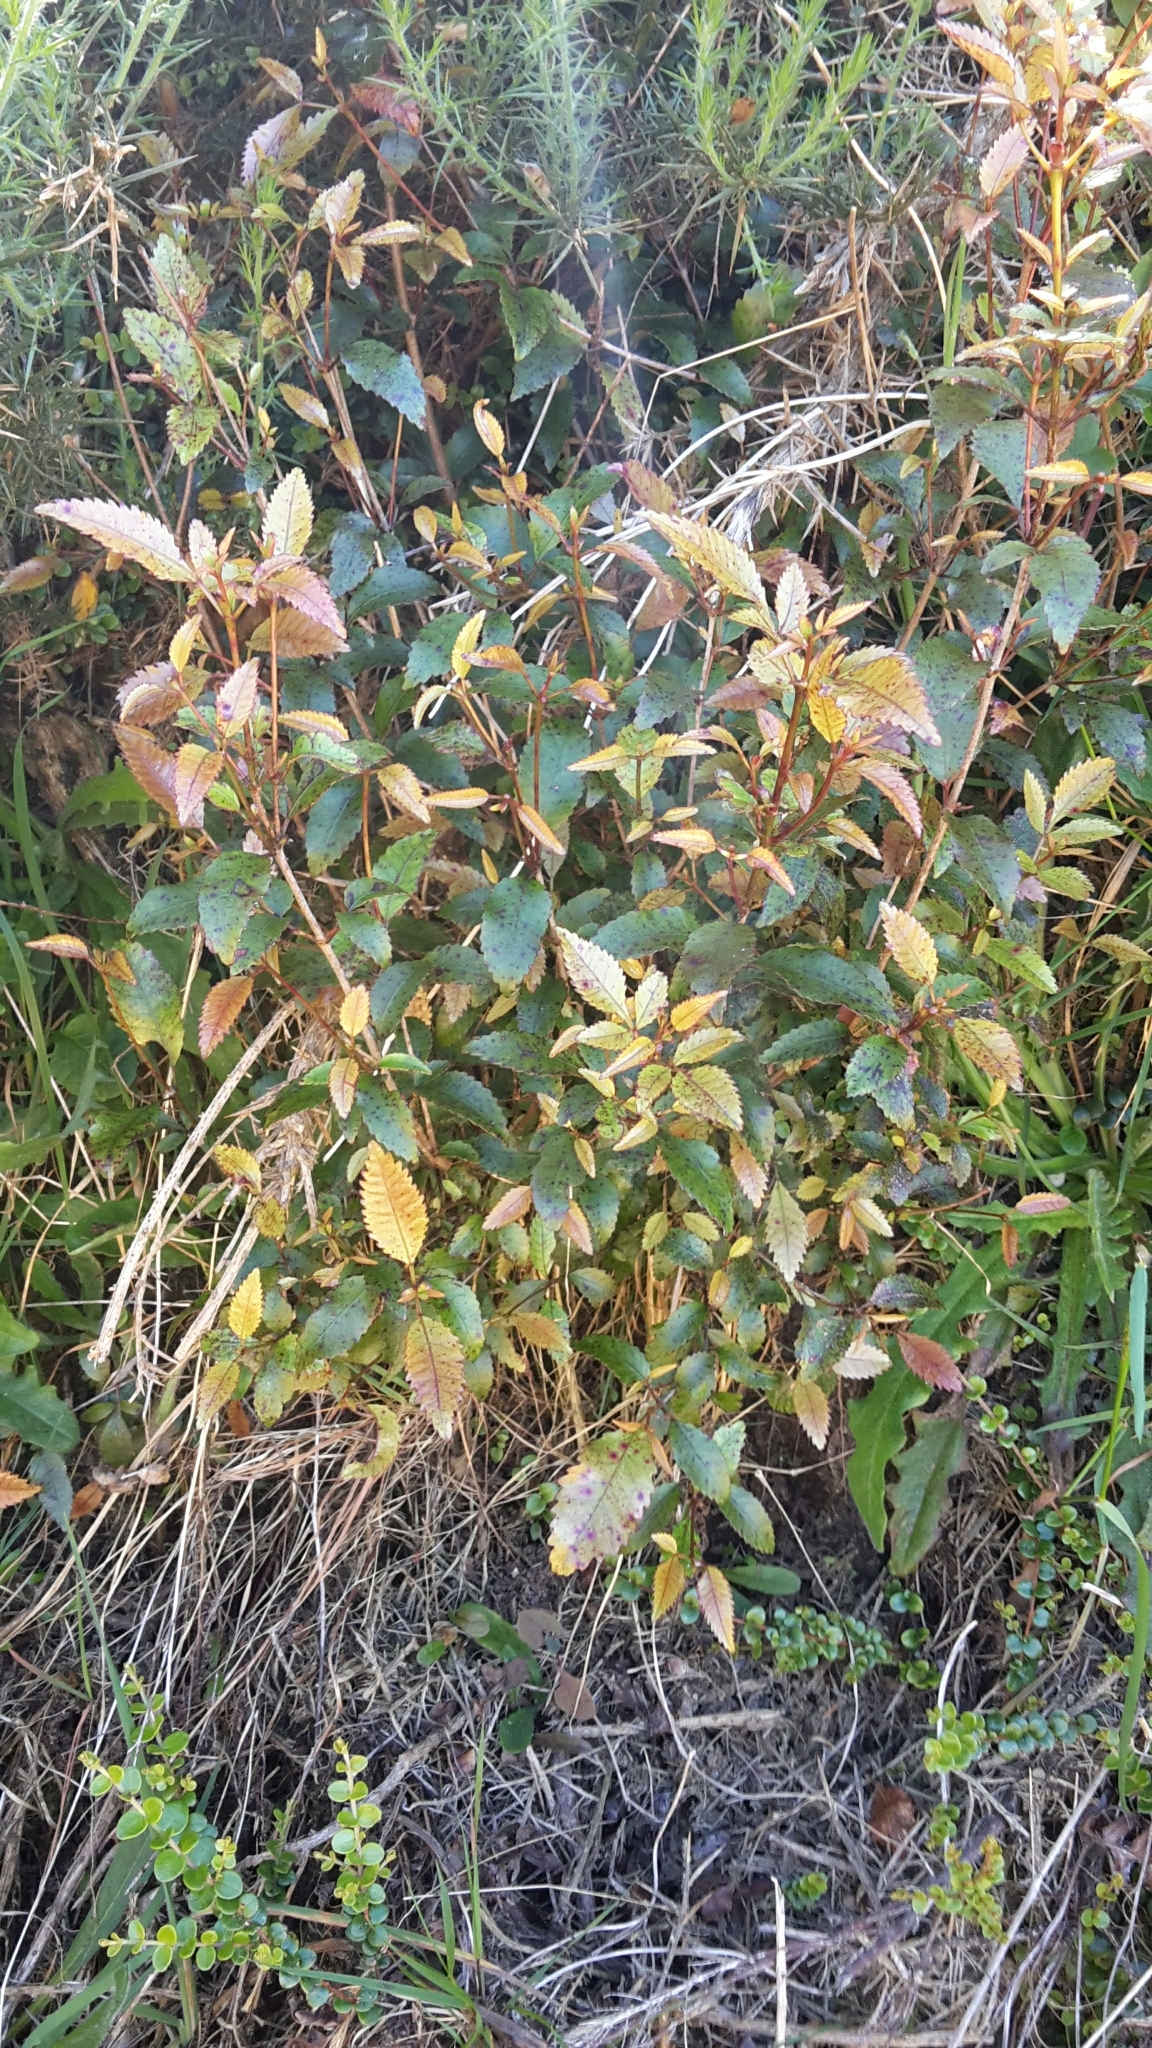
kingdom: Plantae
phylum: Tracheophyta
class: Magnoliopsida
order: Oxalidales
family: Cunoniaceae
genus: Pterophylla
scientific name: Pterophylla racemosa
